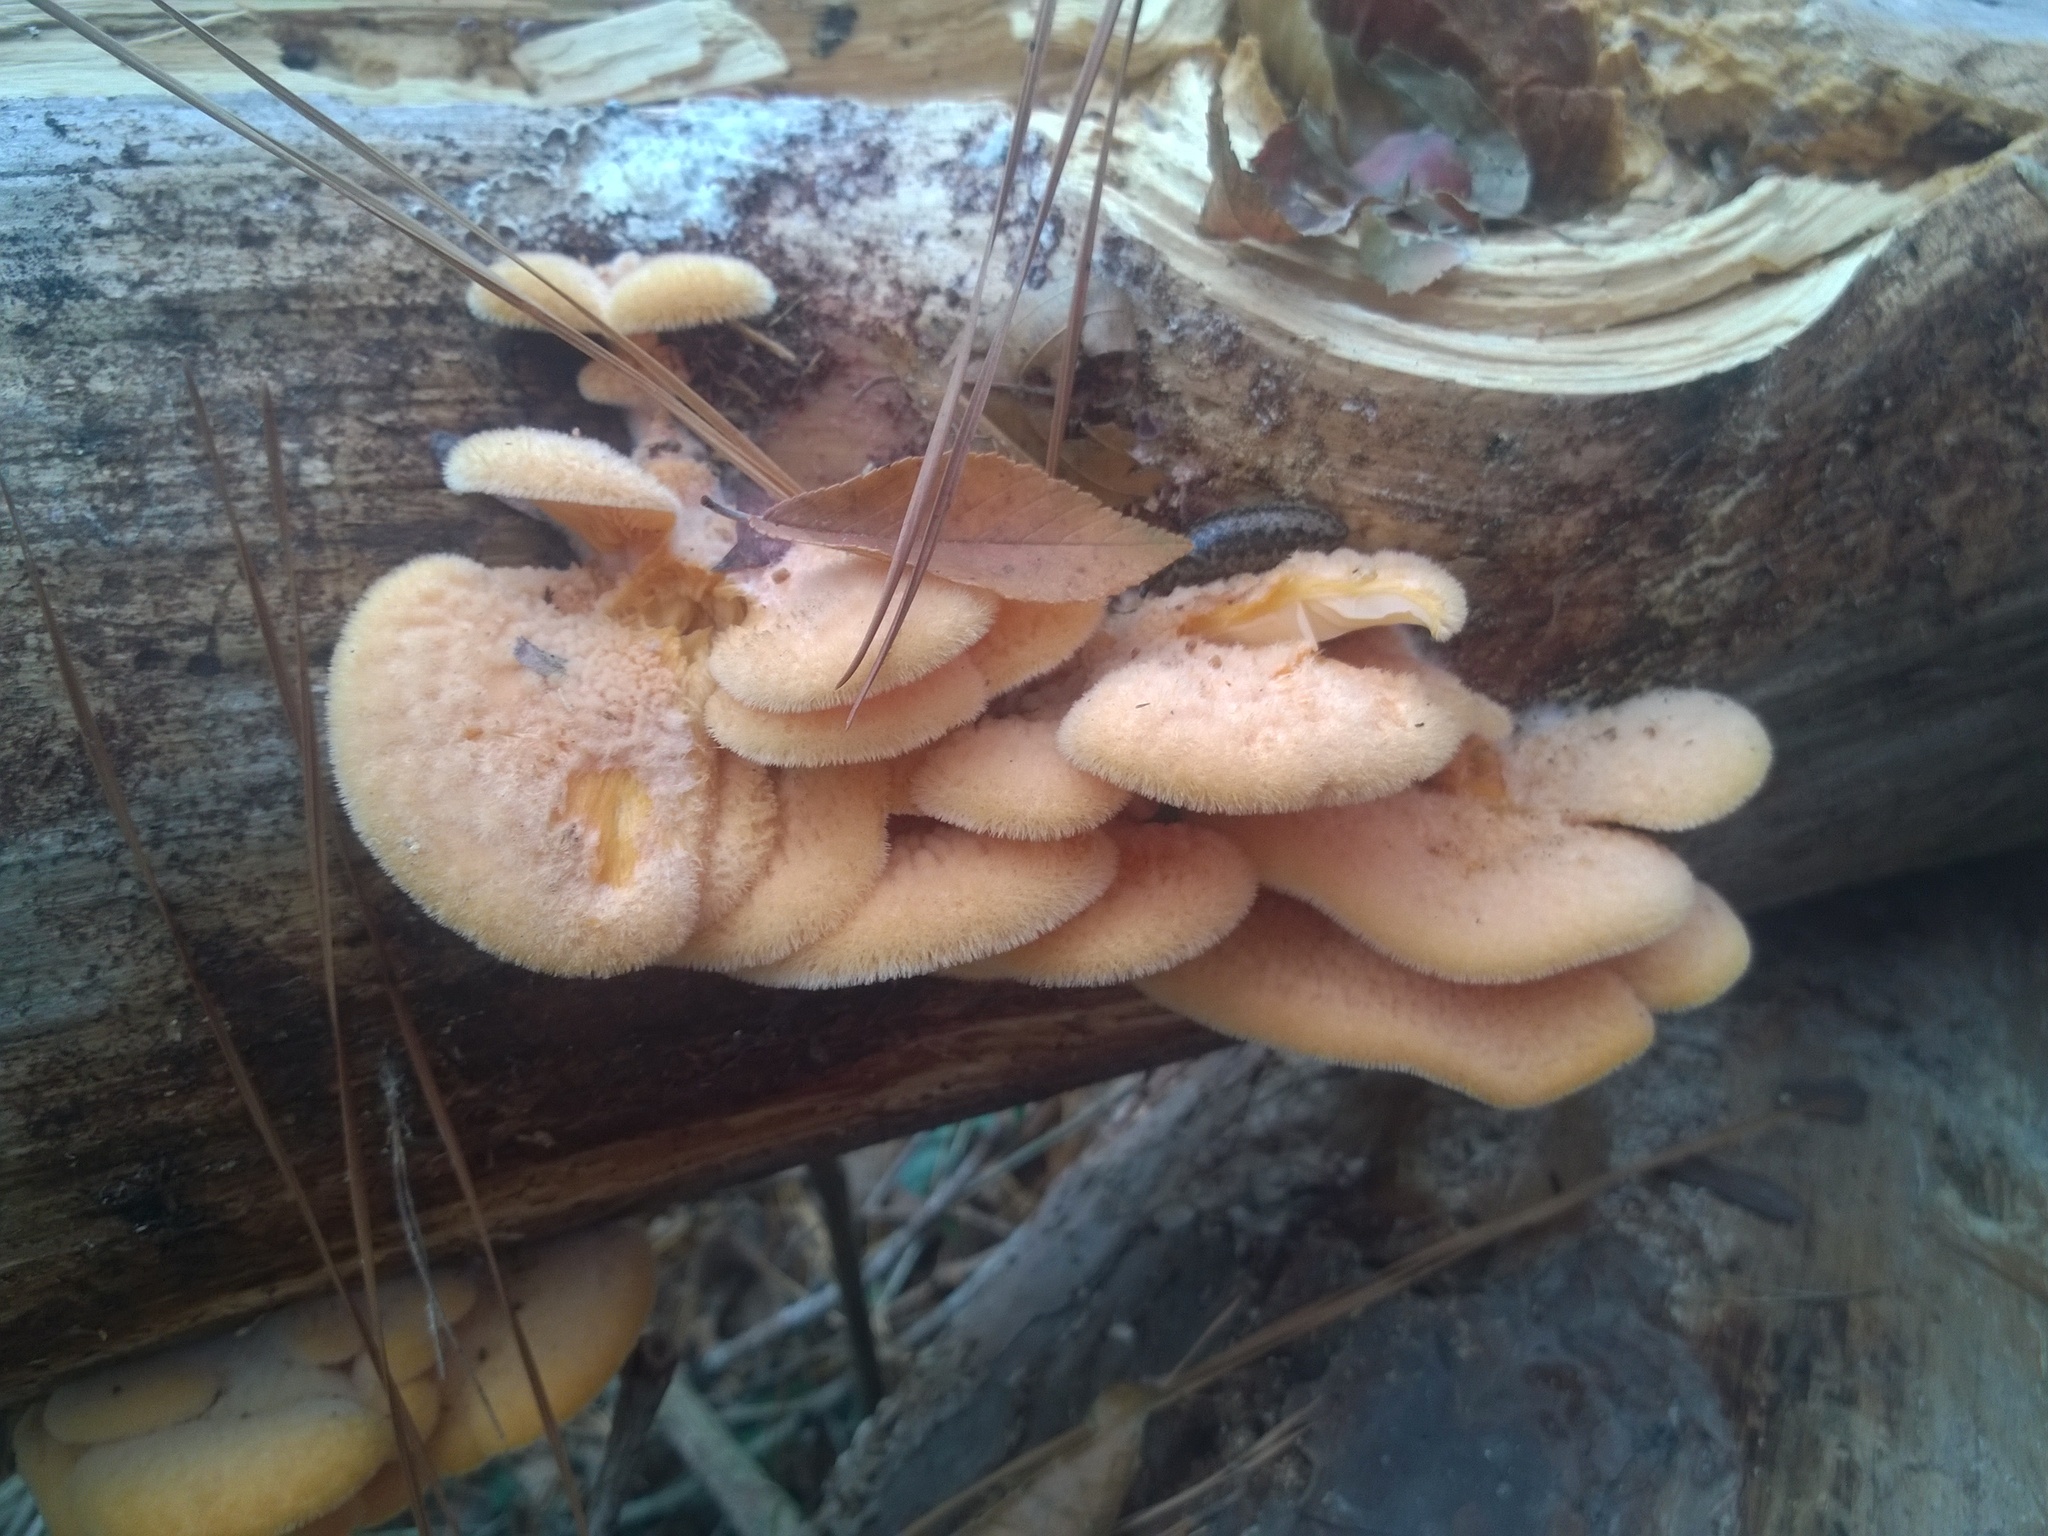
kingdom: Fungi
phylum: Basidiomycota
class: Agaricomycetes
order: Agaricales
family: Phyllotopsidaceae
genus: Phyllotopsis
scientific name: Phyllotopsis nidulans
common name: Orange mock oyster
